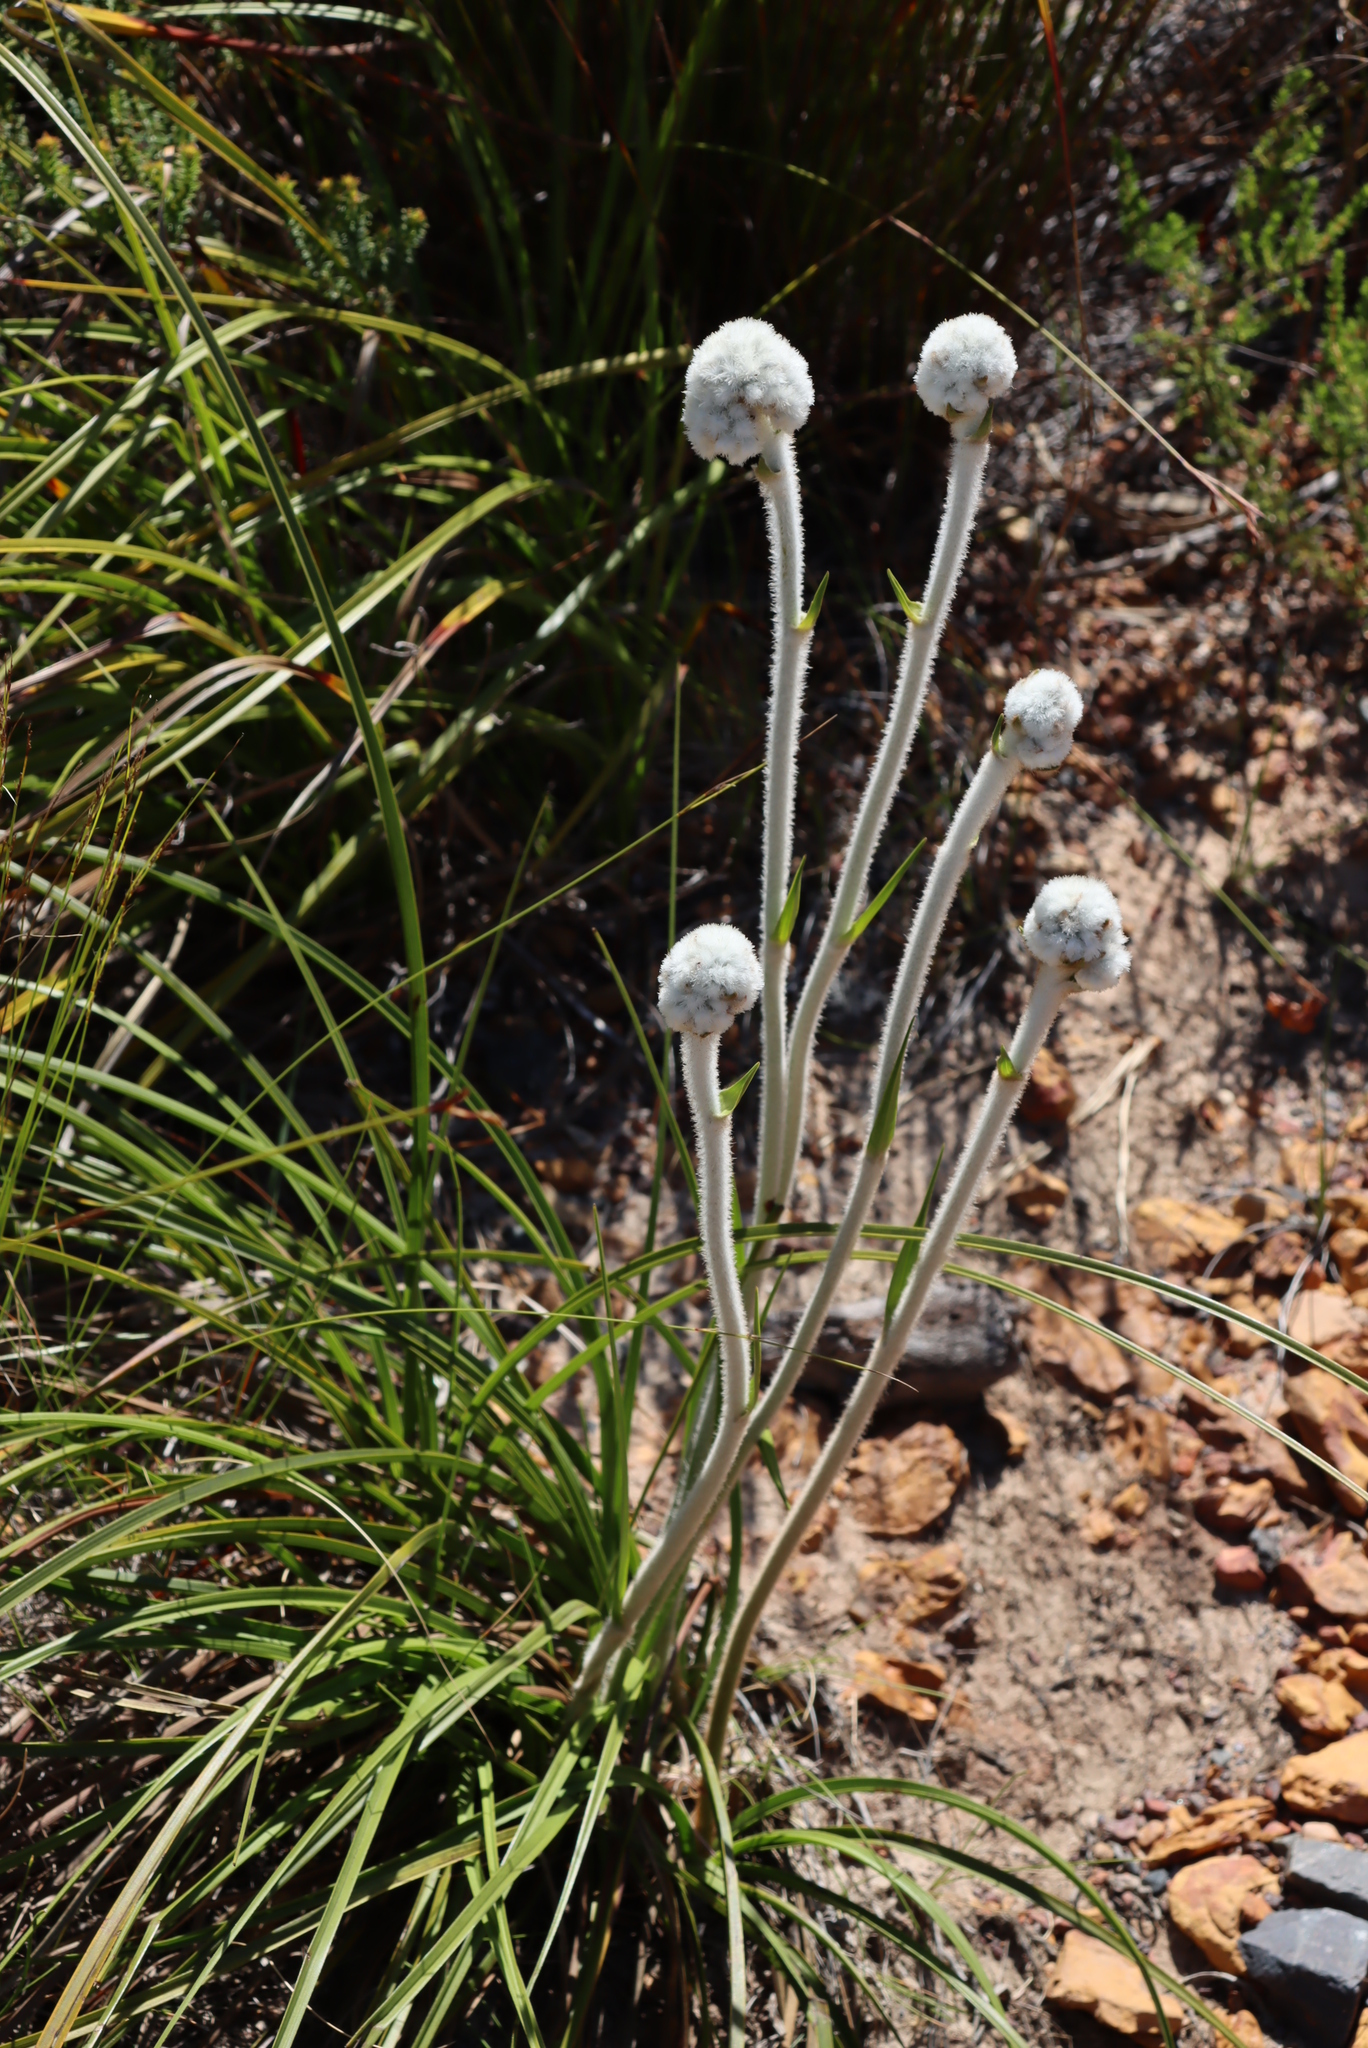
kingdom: Plantae
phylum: Tracheophyta
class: Liliopsida
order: Asparagales
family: Lanariaceae
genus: Lanaria
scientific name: Lanaria lanata
